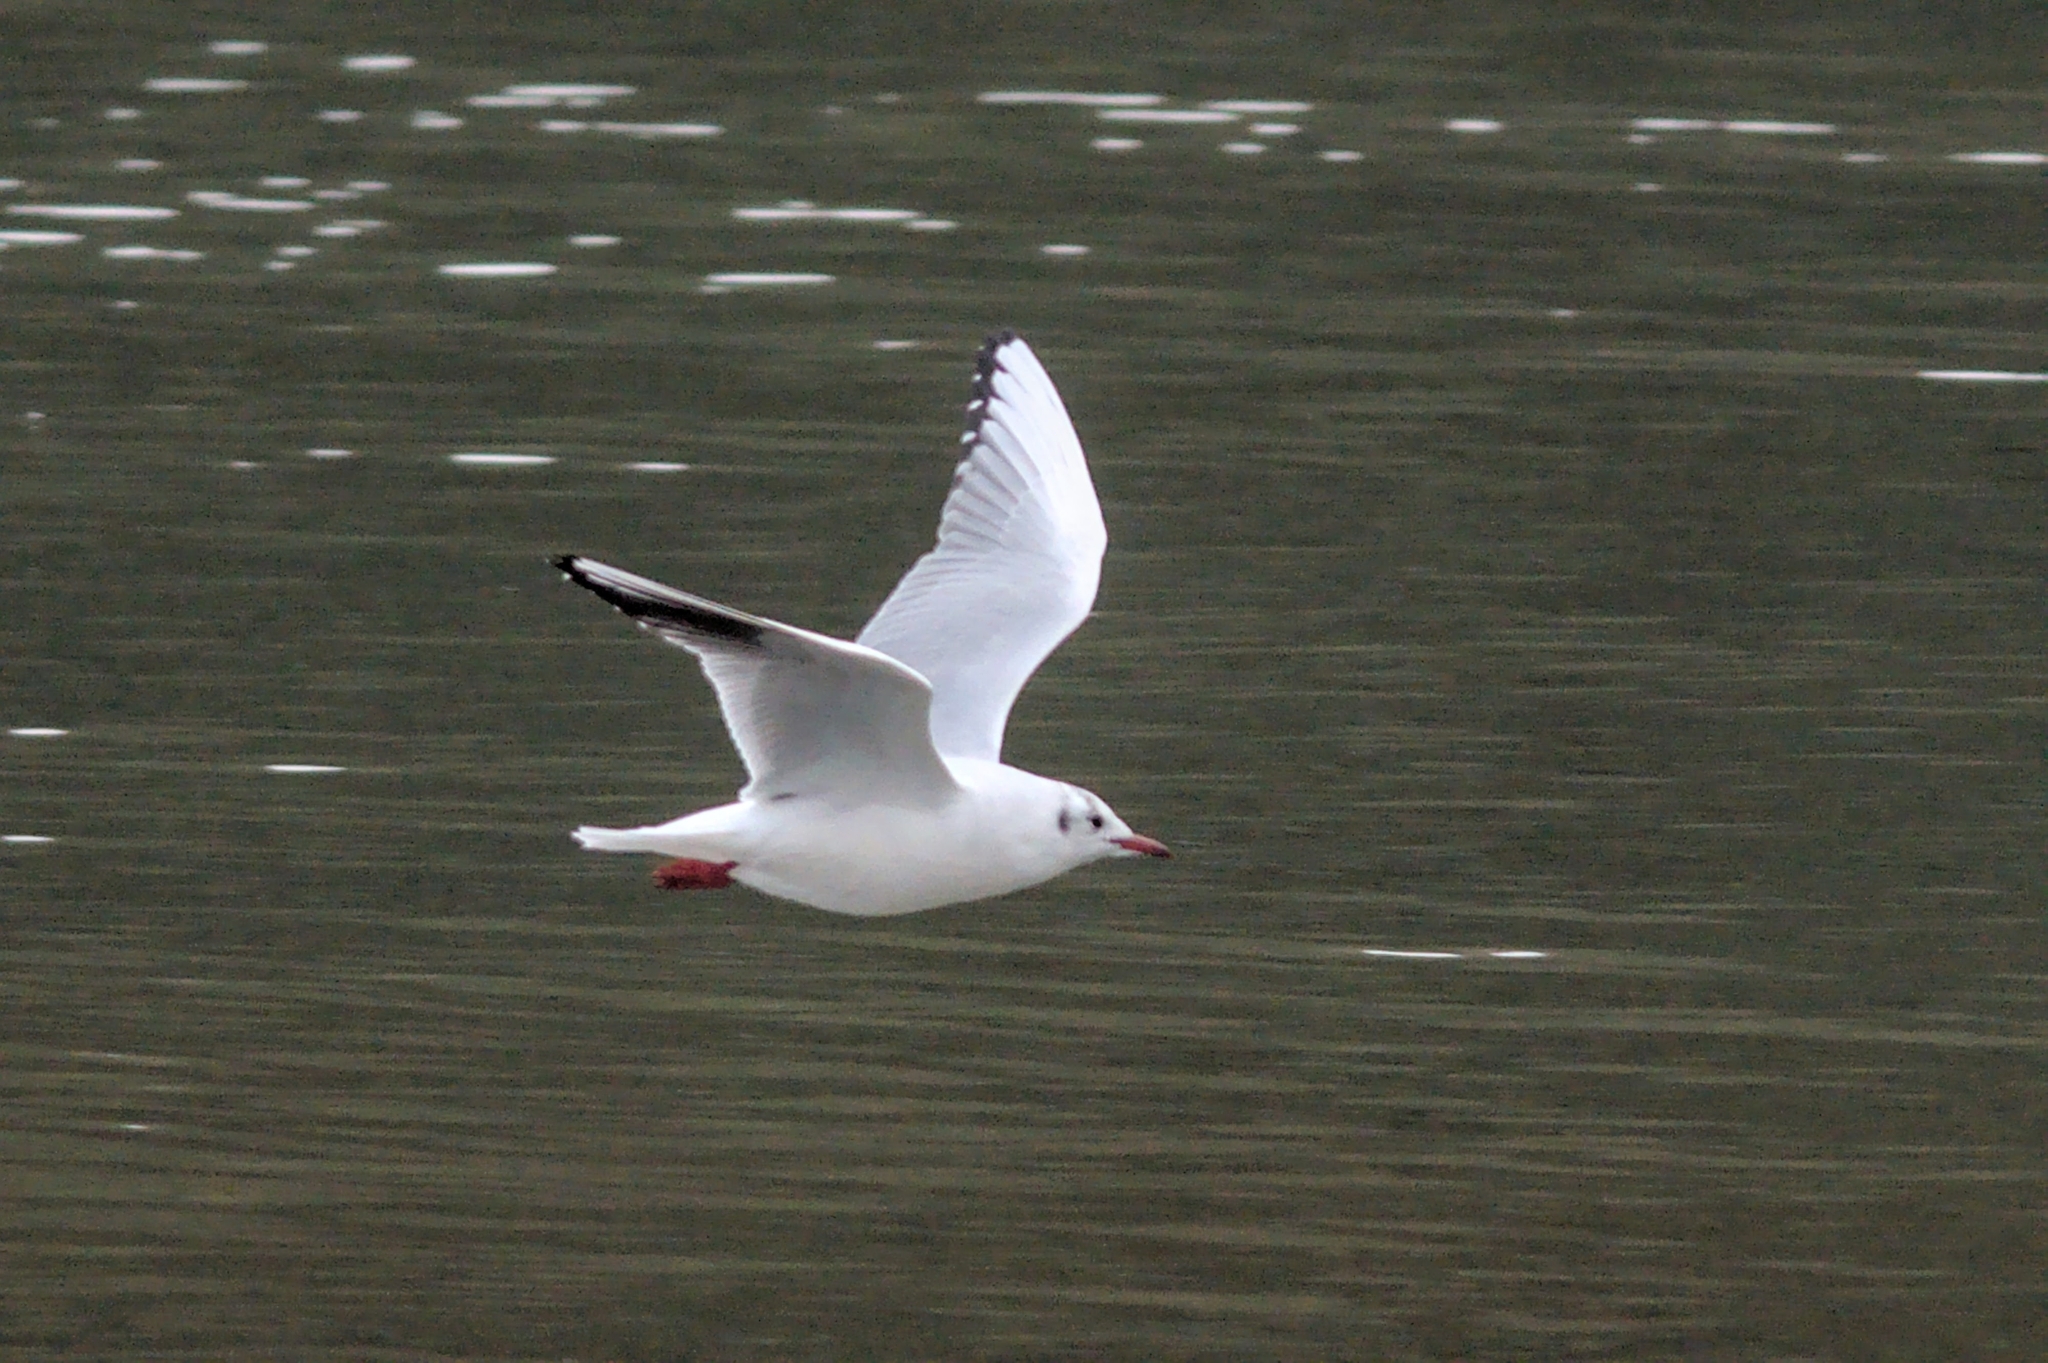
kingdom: Animalia
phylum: Chordata
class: Aves
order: Charadriiformes
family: Laridae
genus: Chroicocephalus
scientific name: Chroicocephalus ridibundus
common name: Black-headed gull
